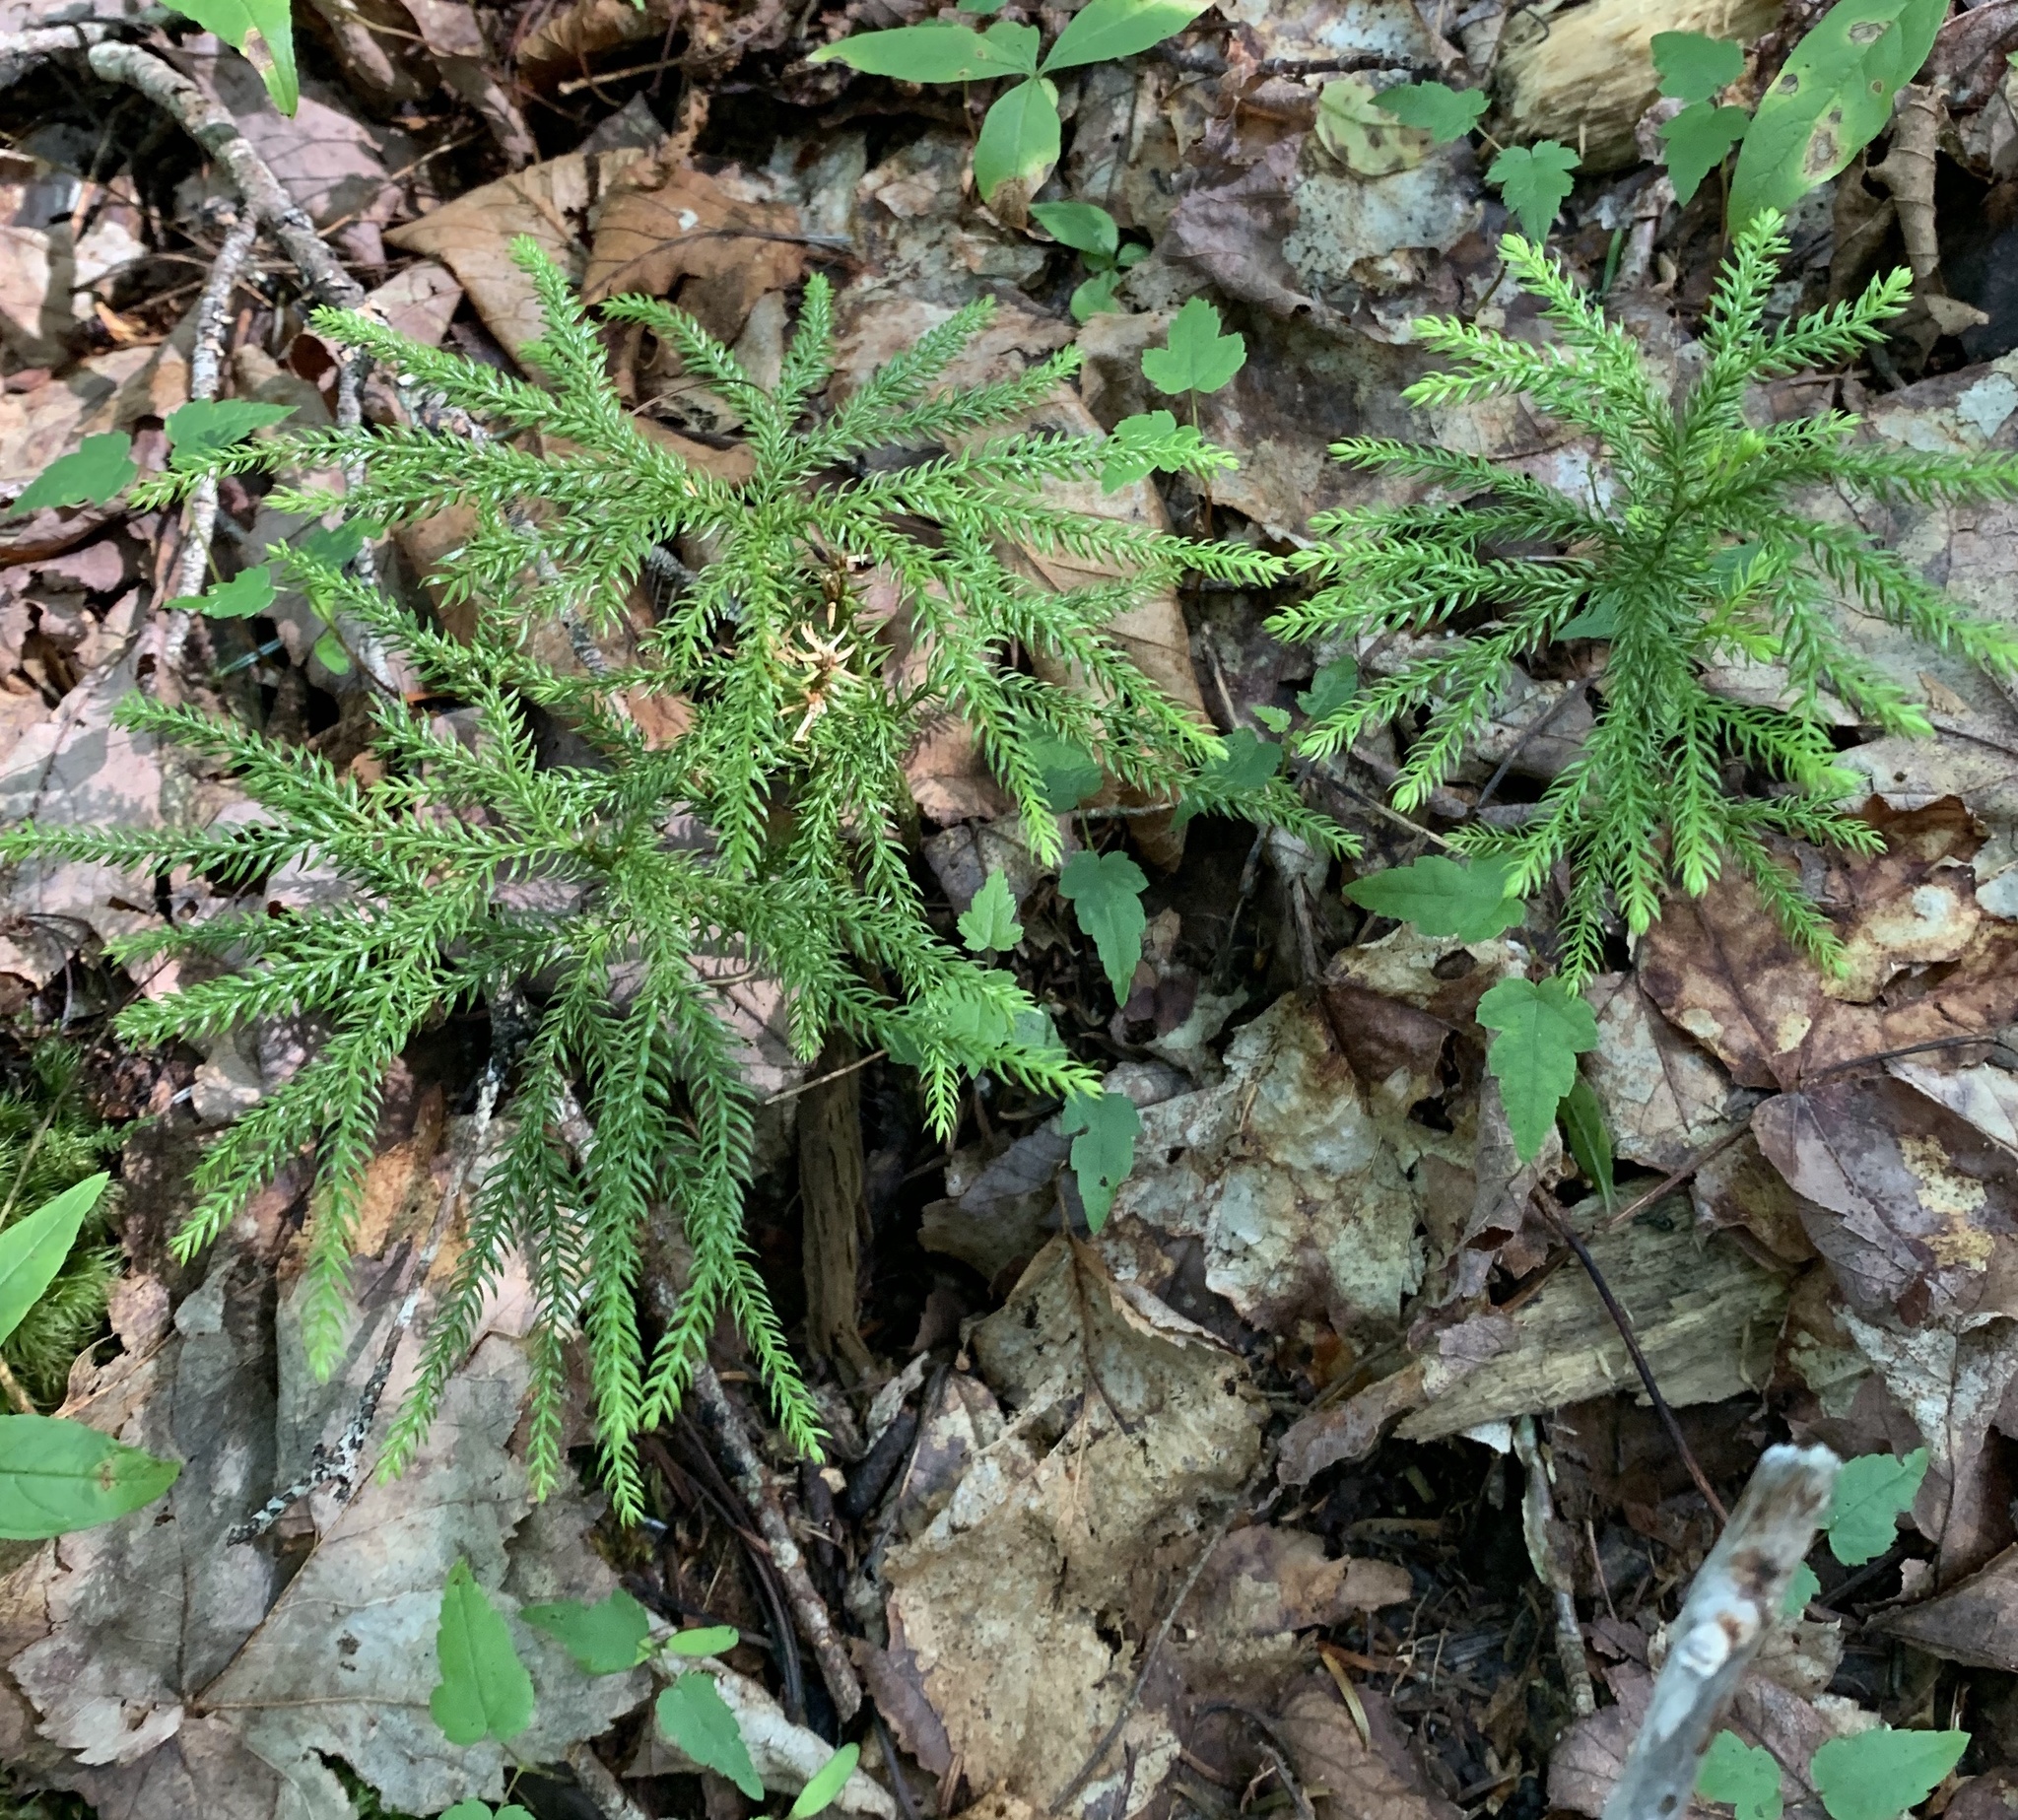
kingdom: Plantae
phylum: Tracheophyta
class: Lycopodiopsida
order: Lycopodiales
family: Lycopodiaceae
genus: Dendrolycopodium
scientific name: Dendrolycopodium dendroideum
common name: Northern tree-clubmoss
